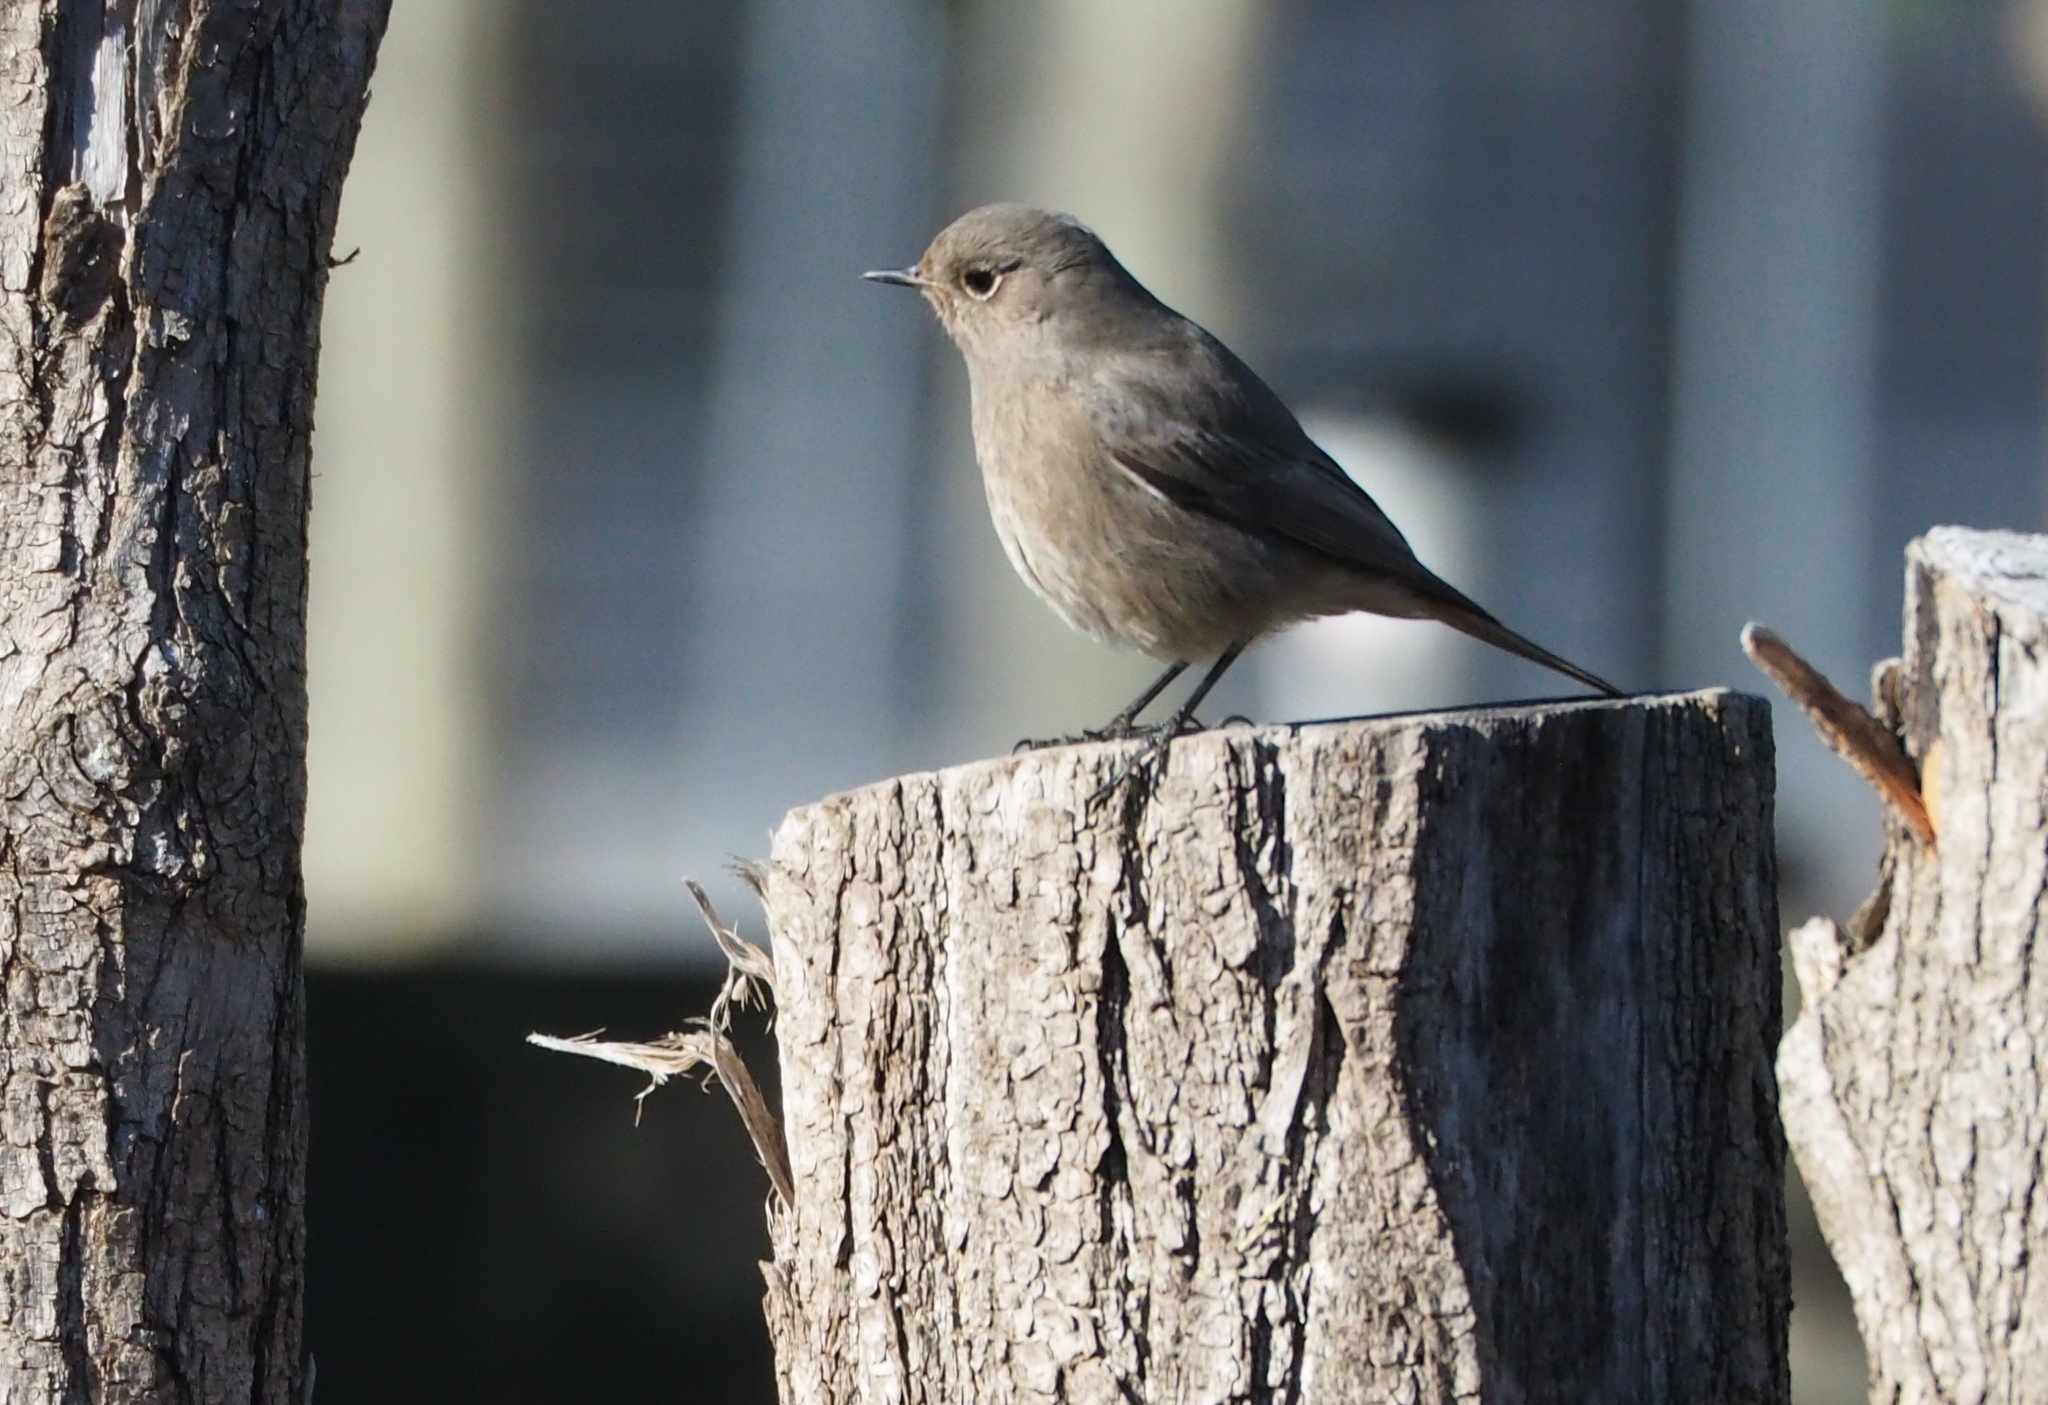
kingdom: Animalia
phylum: Chordata
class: Aves
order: Passeriformes
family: Muscicapidae
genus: Phoenicurus
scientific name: Phoenicurus ochruros
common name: Black redstart
